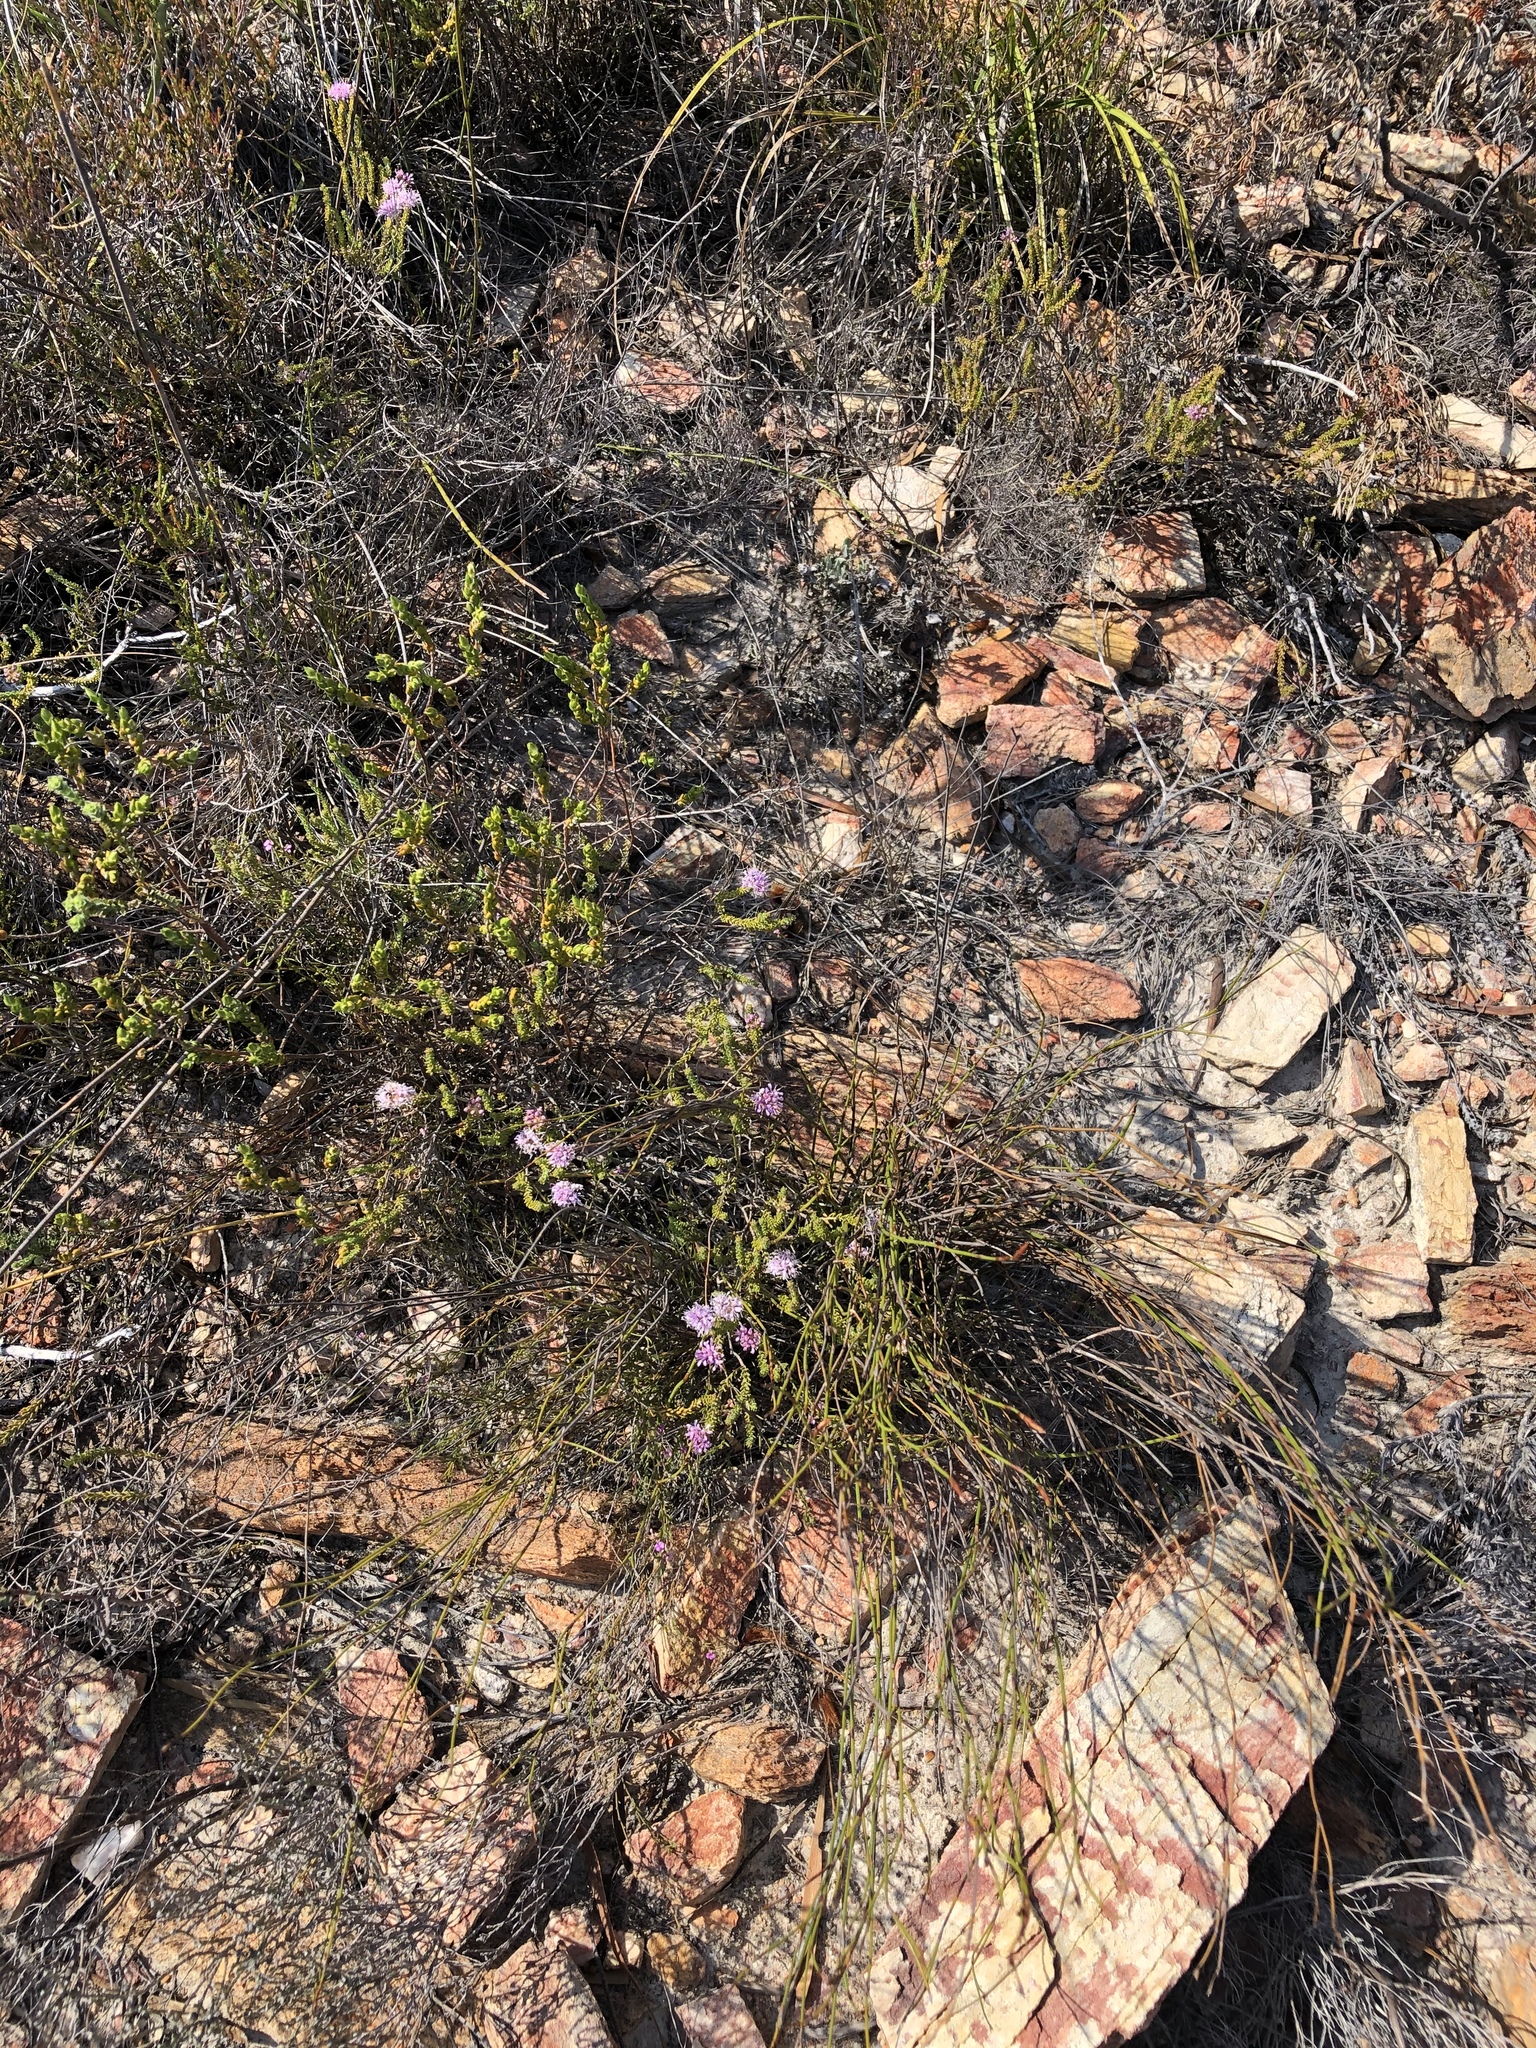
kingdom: Plantae
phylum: Tracheophyta
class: Magnoliopsida
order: Sapindales
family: Rutaceae
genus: Agathosma
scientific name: Agathosma capensis
